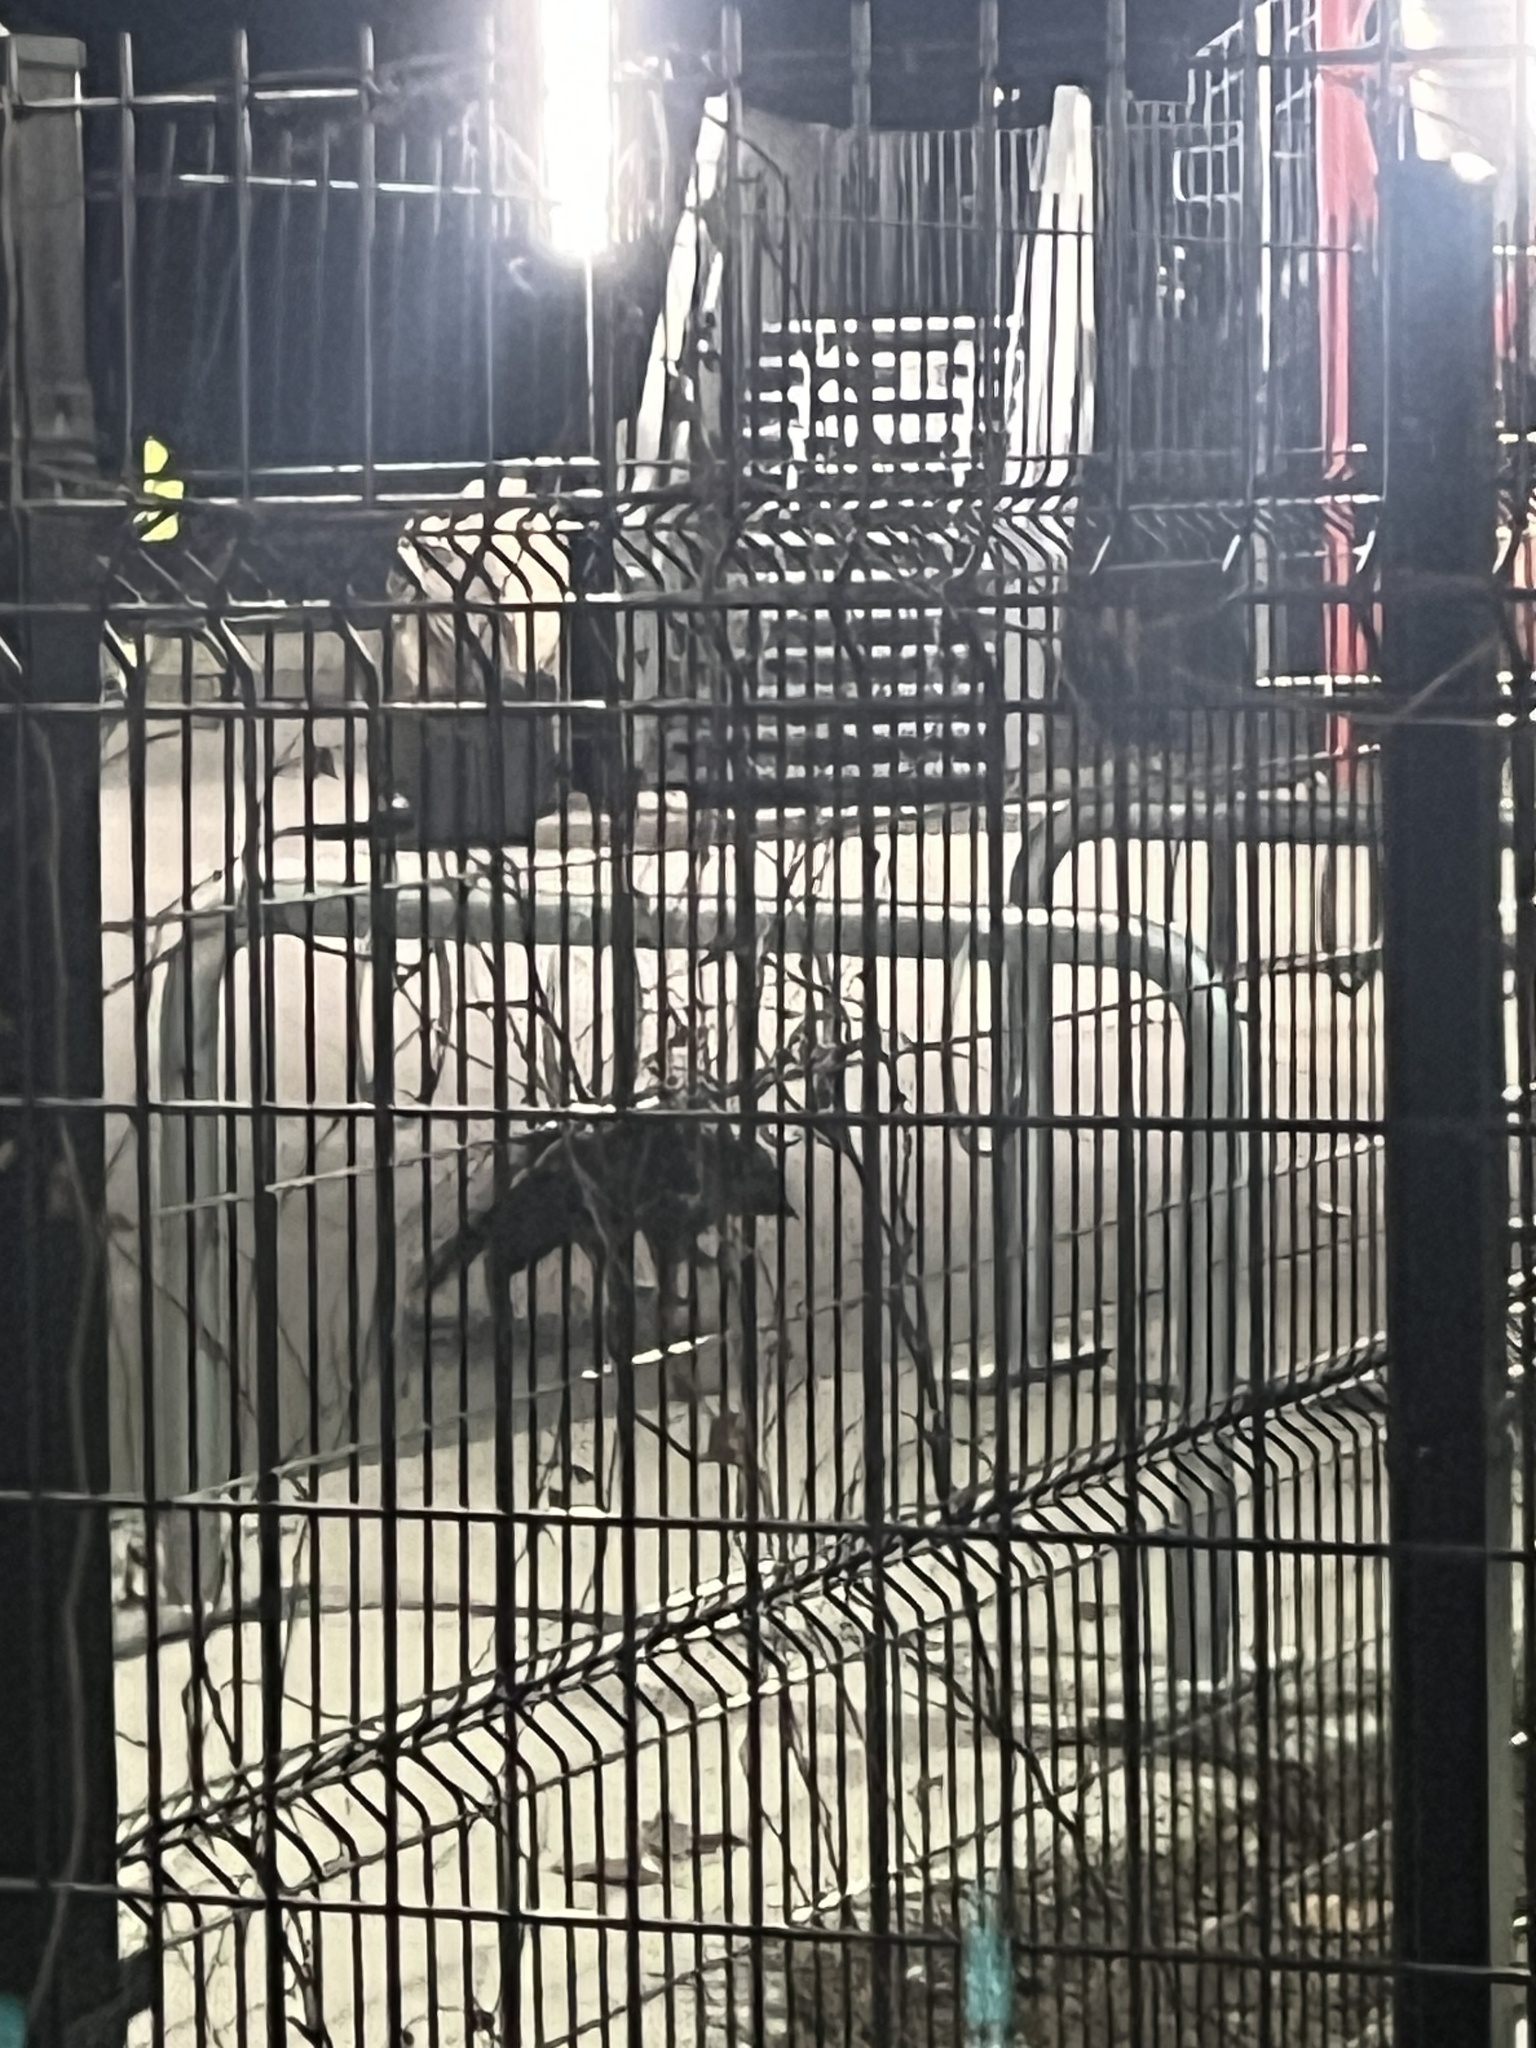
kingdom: Animalia
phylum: Chordata
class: Mammalia
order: Carnivora
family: Procyonidae
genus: Procyon
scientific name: Procyon lotor
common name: Raccoon
